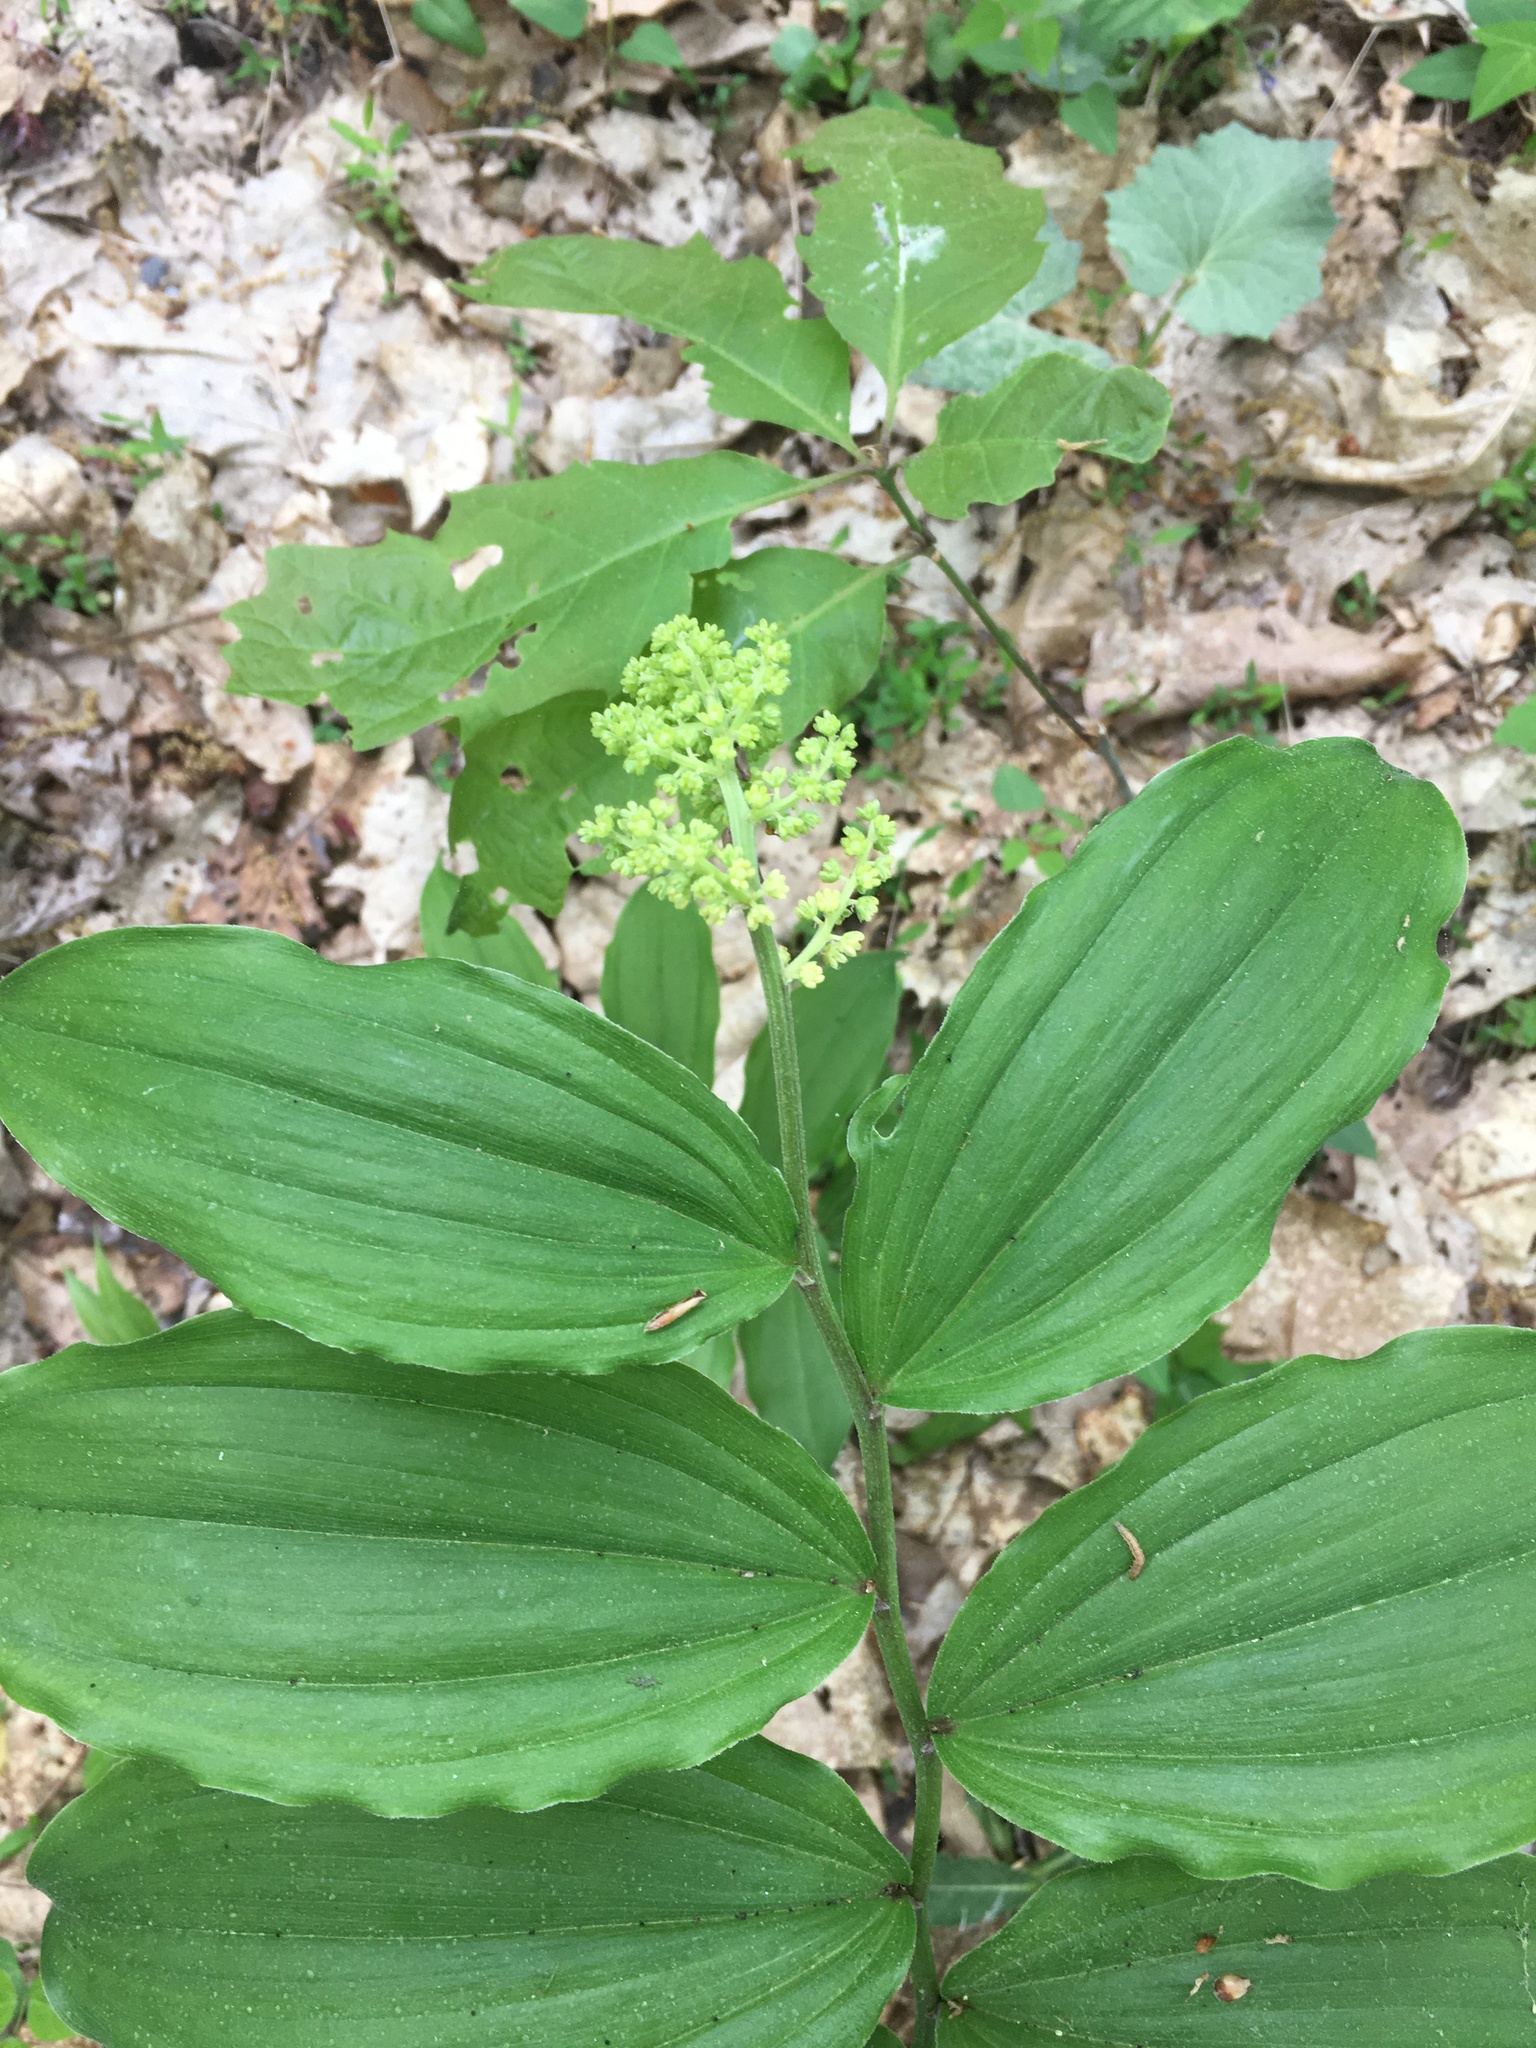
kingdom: Plantae
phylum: Tracheophyta
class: Liliopsida
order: Asparagales
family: Asparagaceae
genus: Maianthemum
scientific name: Maianthemum racemosum
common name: False spikenard
